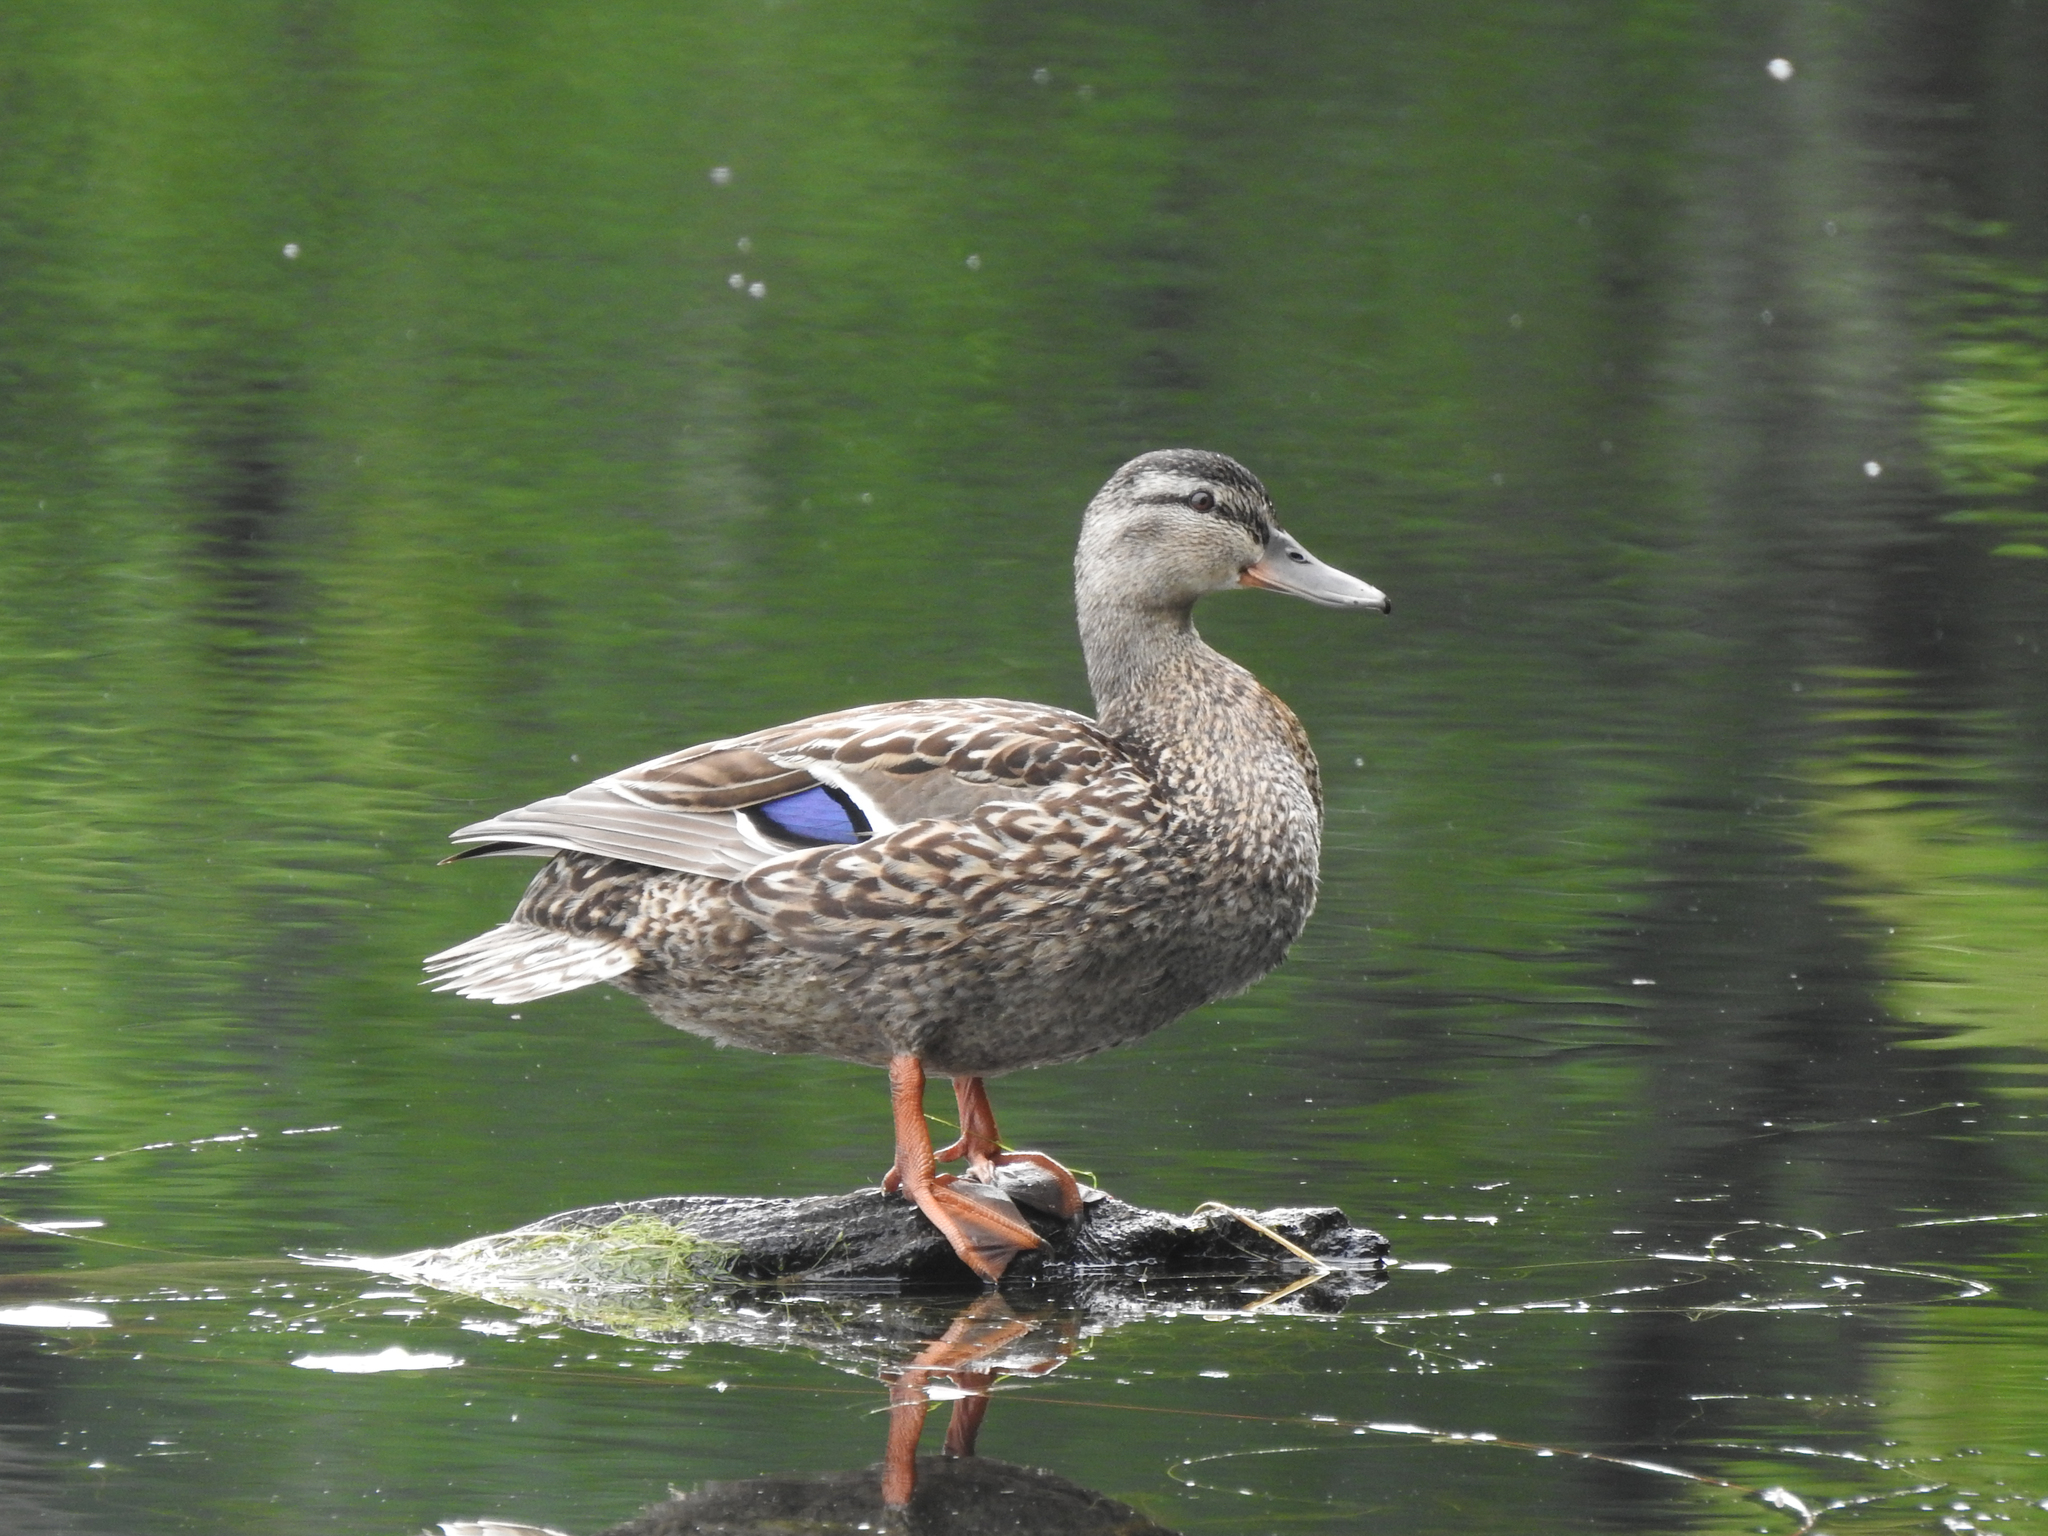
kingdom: Animalia
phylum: Chordata
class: Aves
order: Anseriformes
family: Anatidae
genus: Anas
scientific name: Anas platyrhynchos
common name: Mallard
